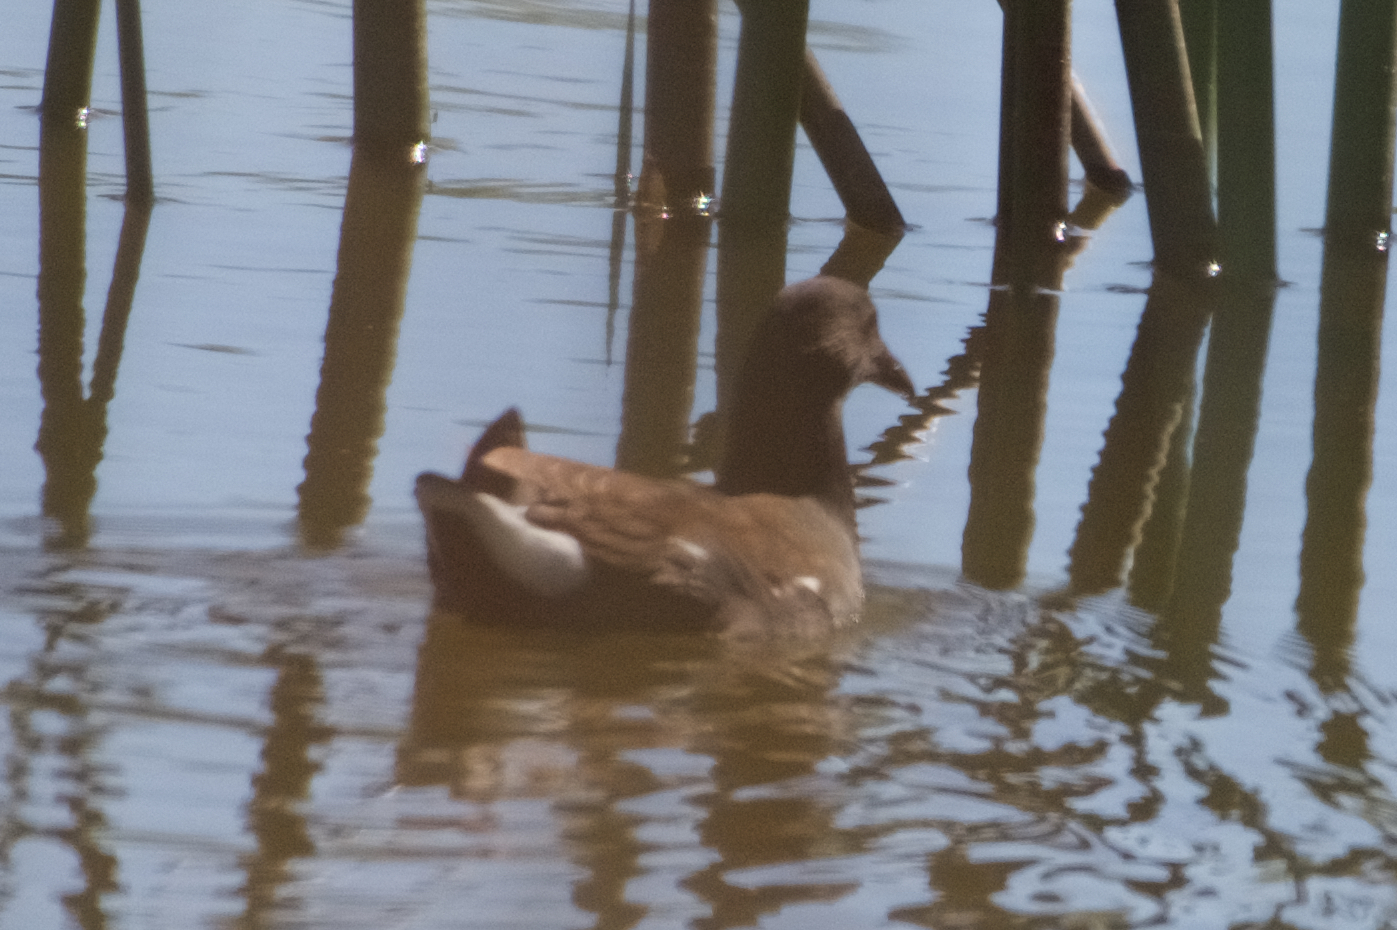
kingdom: Animalia
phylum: Chordata
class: Aves
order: Gruiformes
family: Rallidae
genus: Gallinula
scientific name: Gallinula chloropus
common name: Common moorhen
